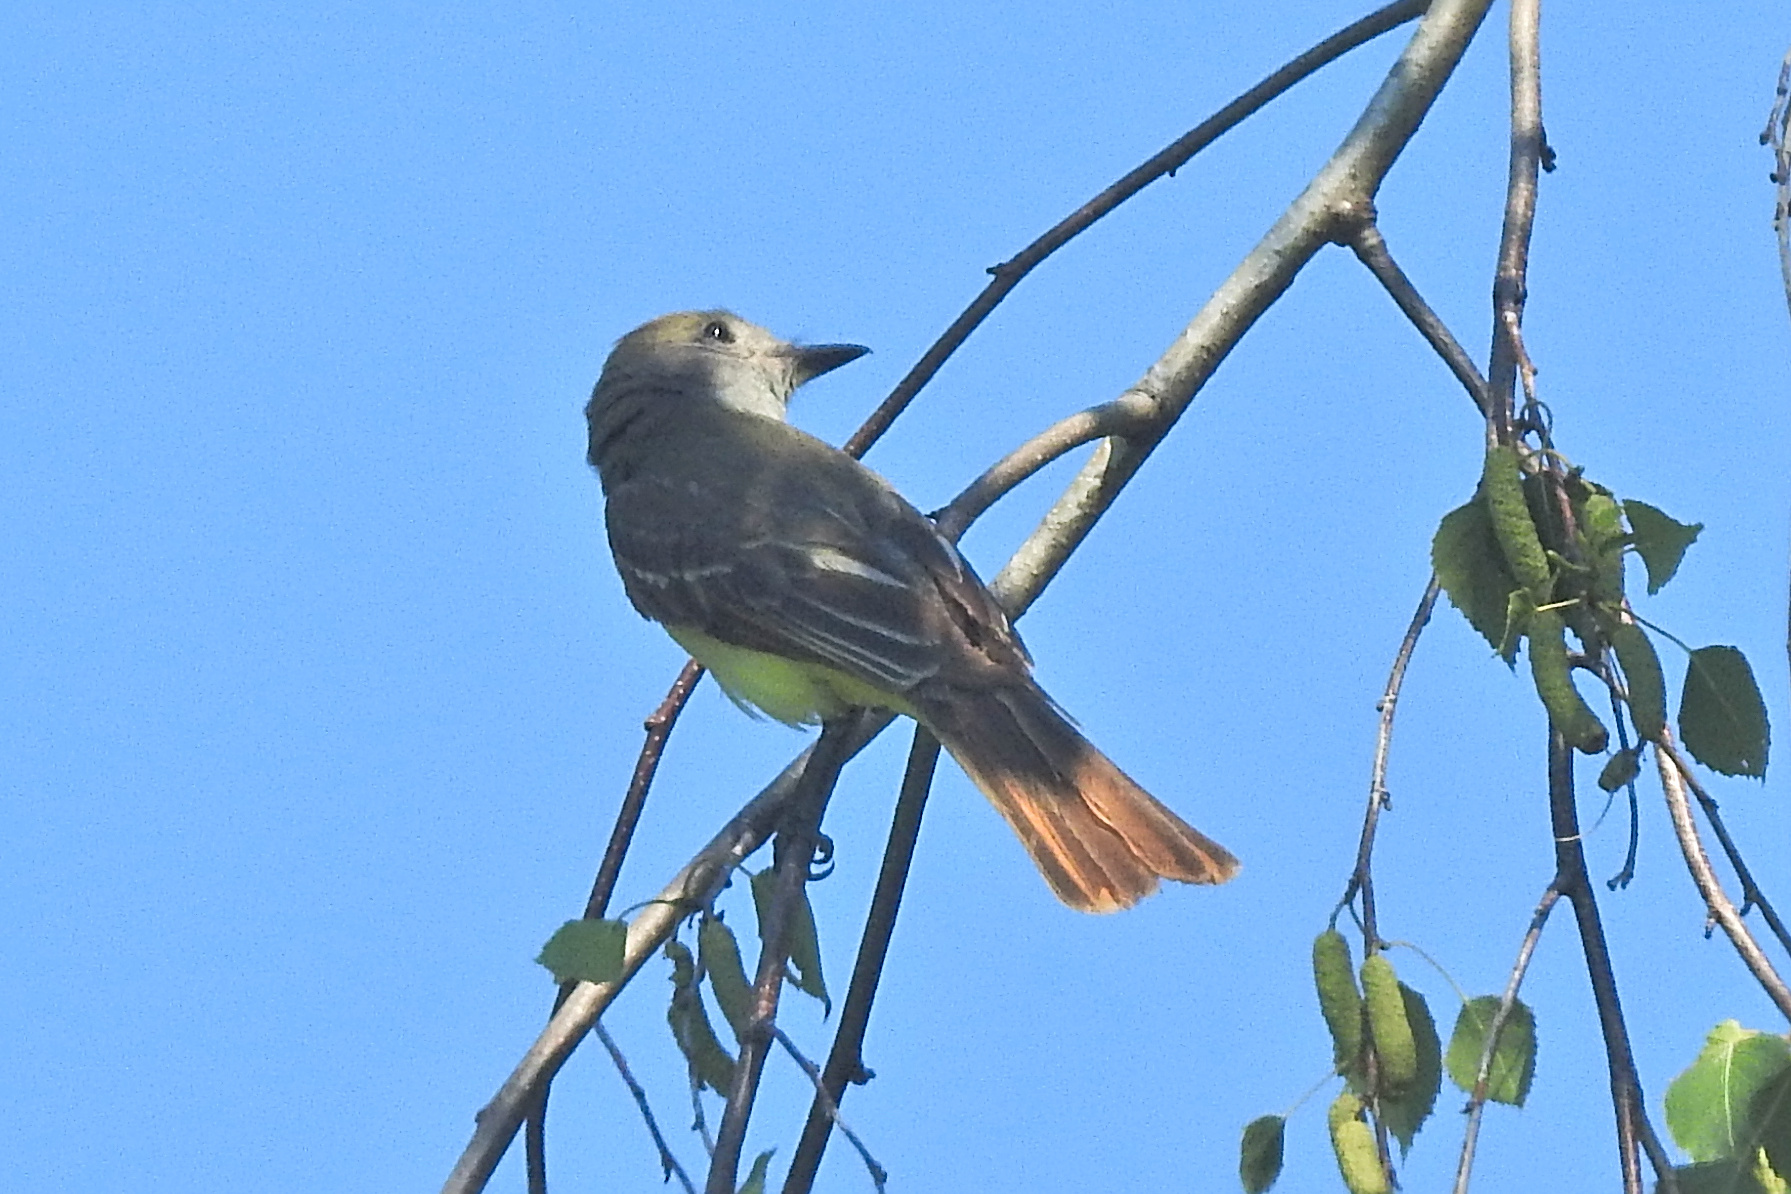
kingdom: Animalia
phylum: Chordata
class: Aves
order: Passeriformes
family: Tyrannidae
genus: Myiarchus
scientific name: Myiarchus crinitus
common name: Great crested flycatcher
